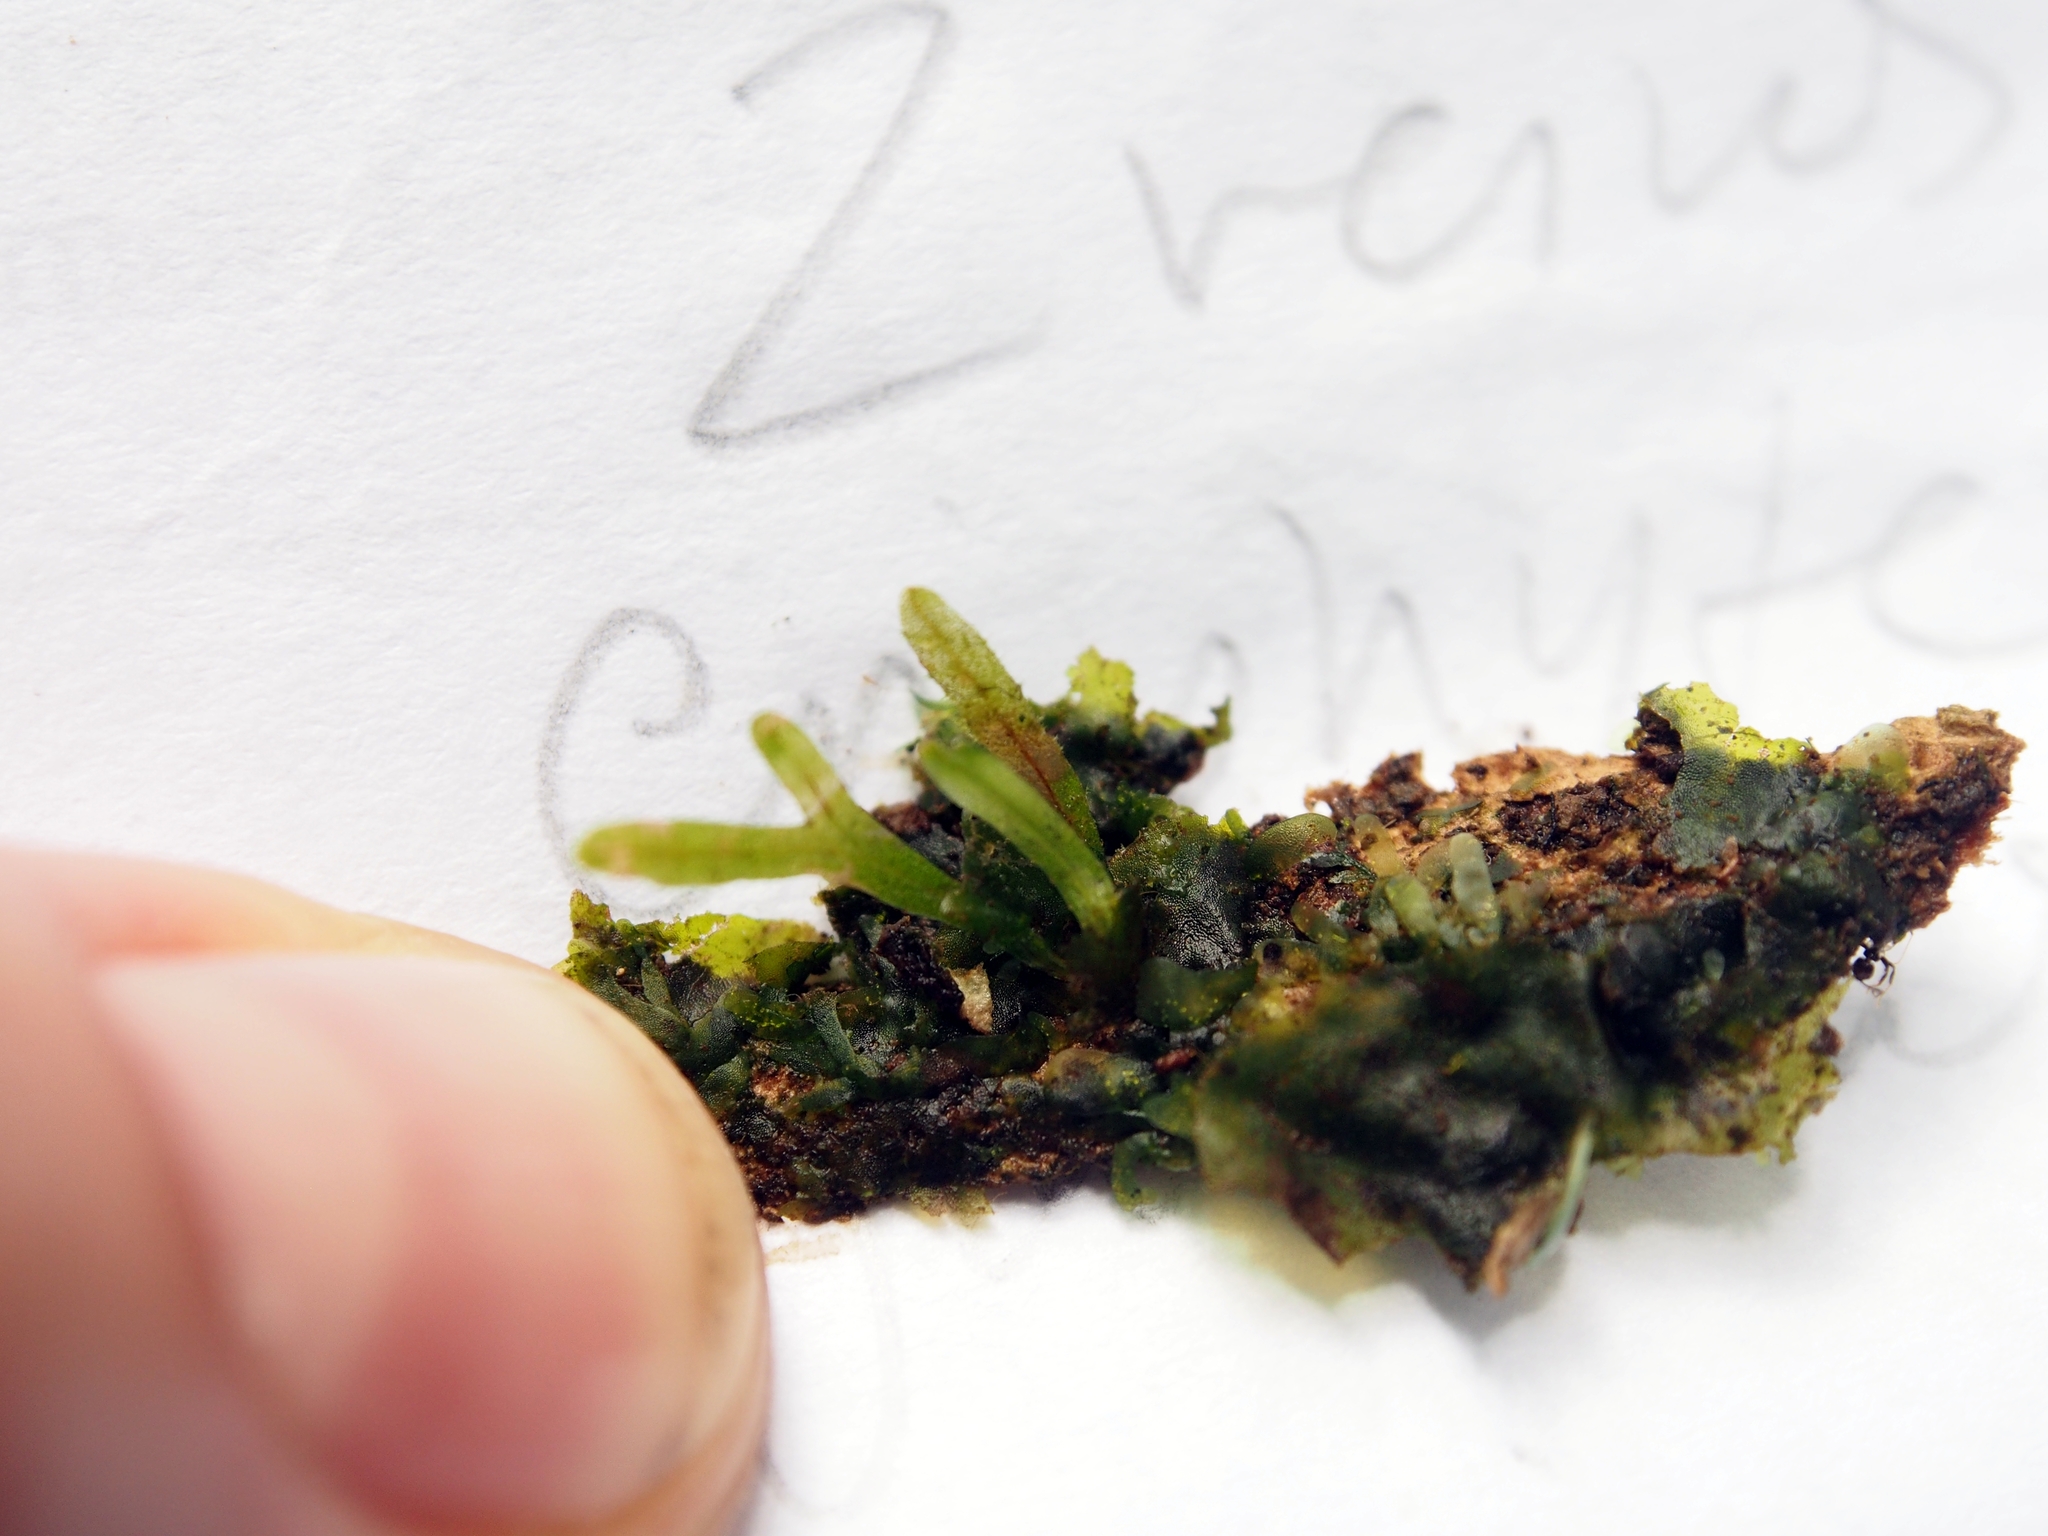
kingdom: Plantae
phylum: Tracheophyta
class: Polypodiopsida
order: Polypodiales
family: Lomariopsidaceae
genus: Lomariopsis
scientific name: Lomariopsis vestita
